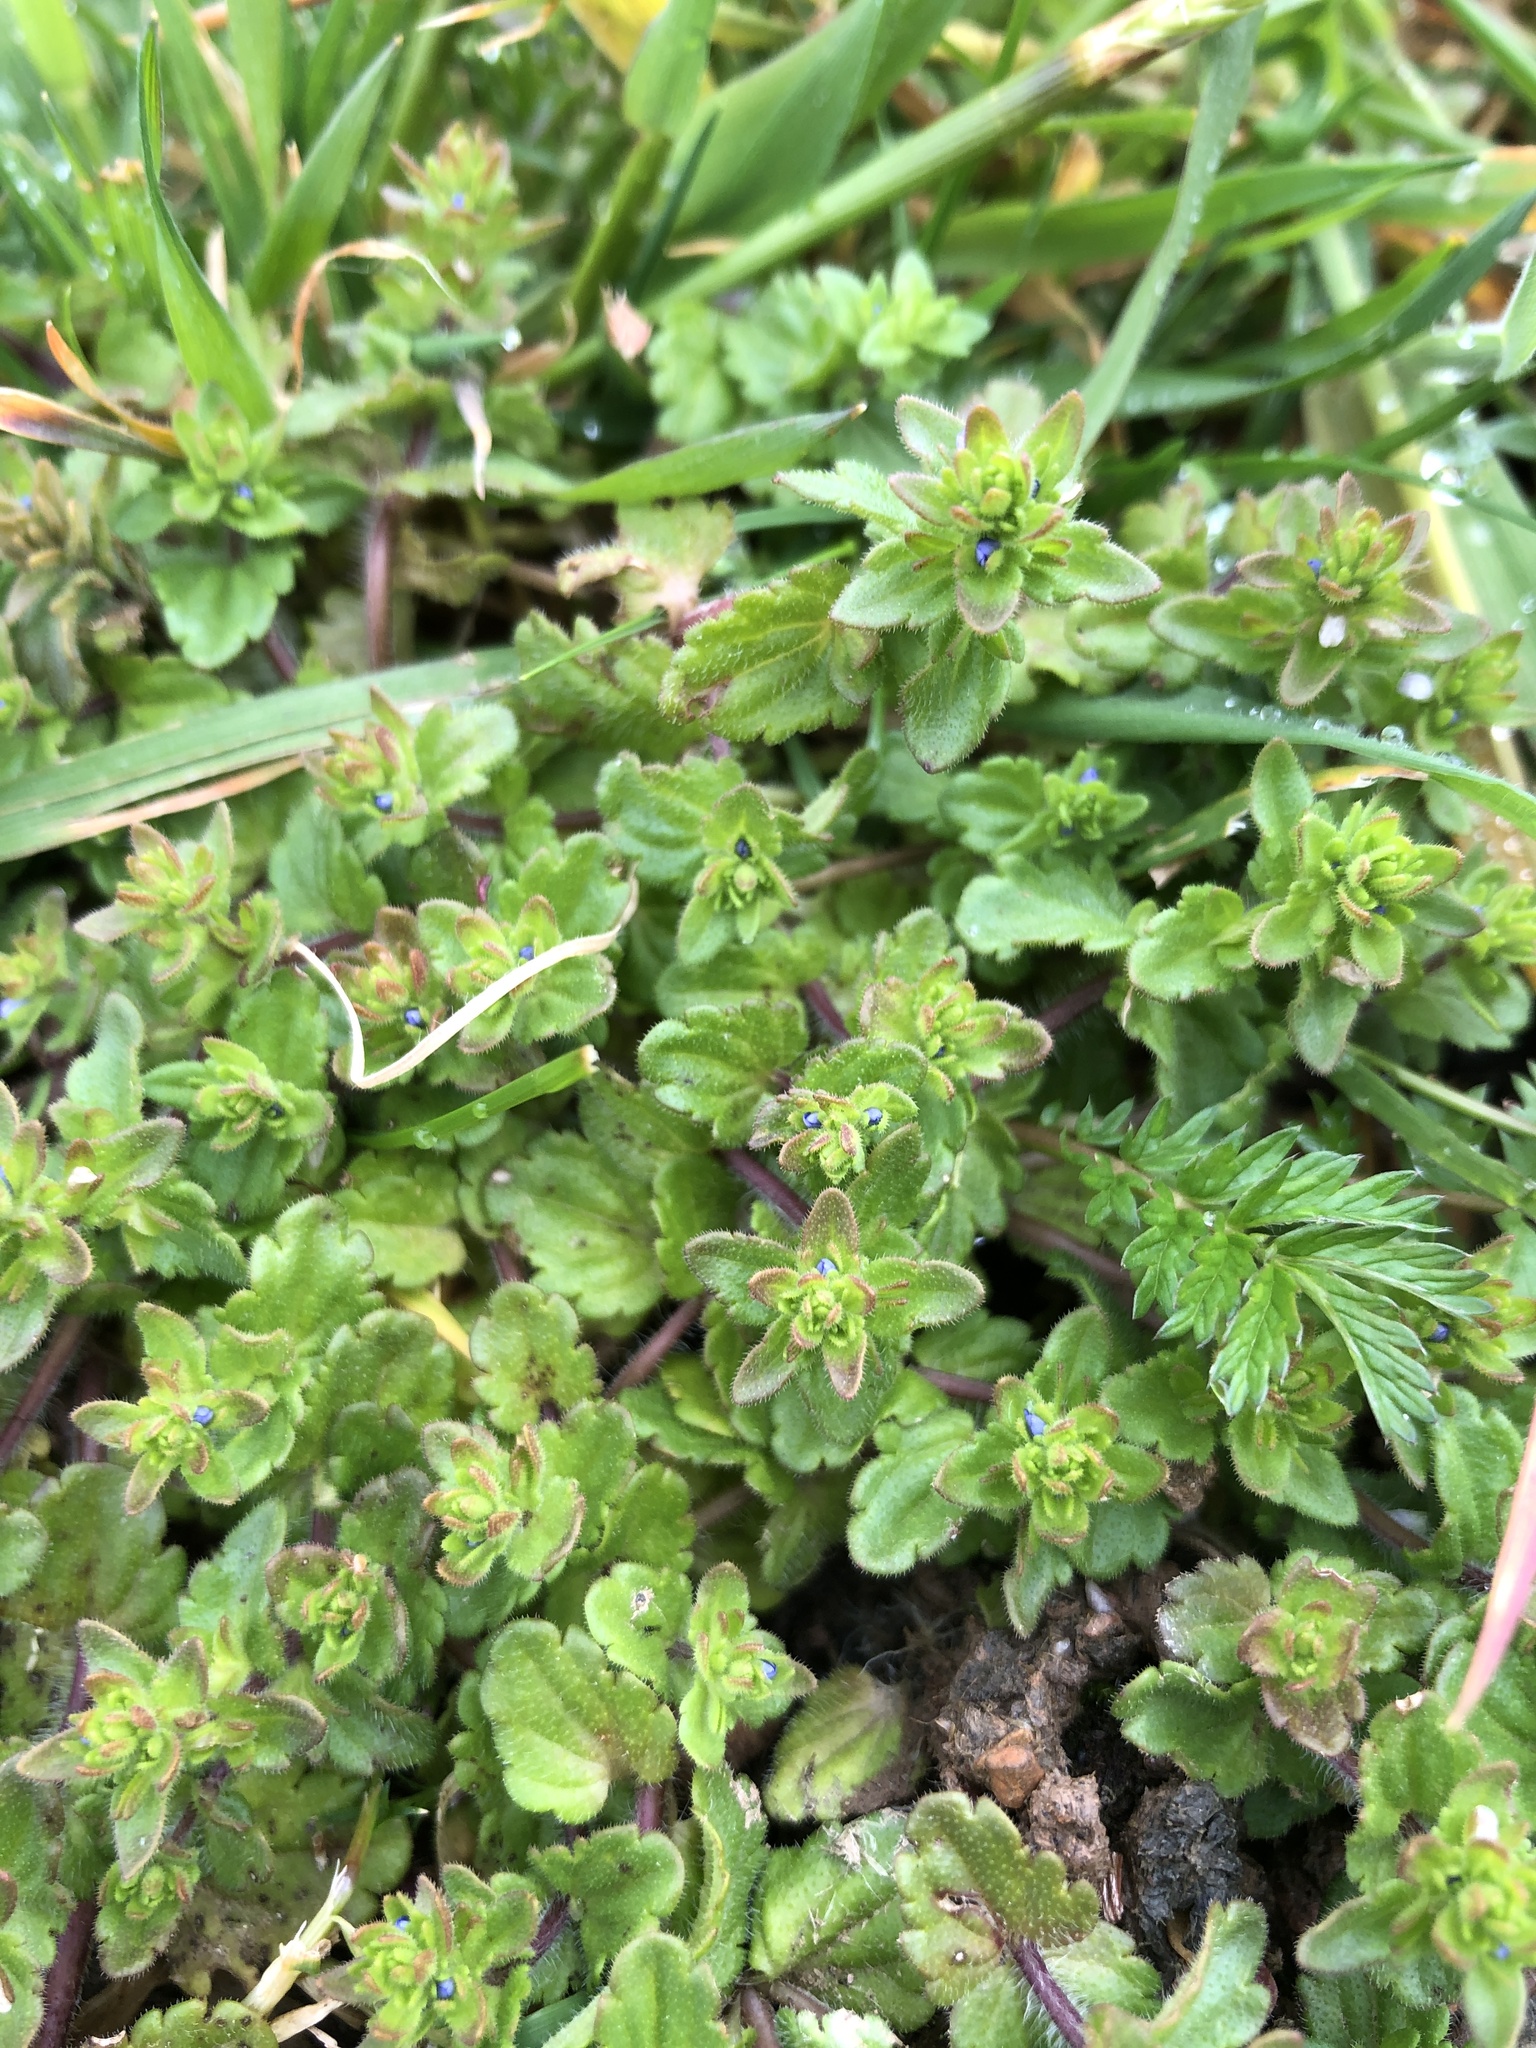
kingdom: Plantae
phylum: Tracheophyta
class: Magnoliopsida
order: Lamiales
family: Plantaginaceae
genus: Veronica
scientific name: Veronica arvensis
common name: Corn speedwell
